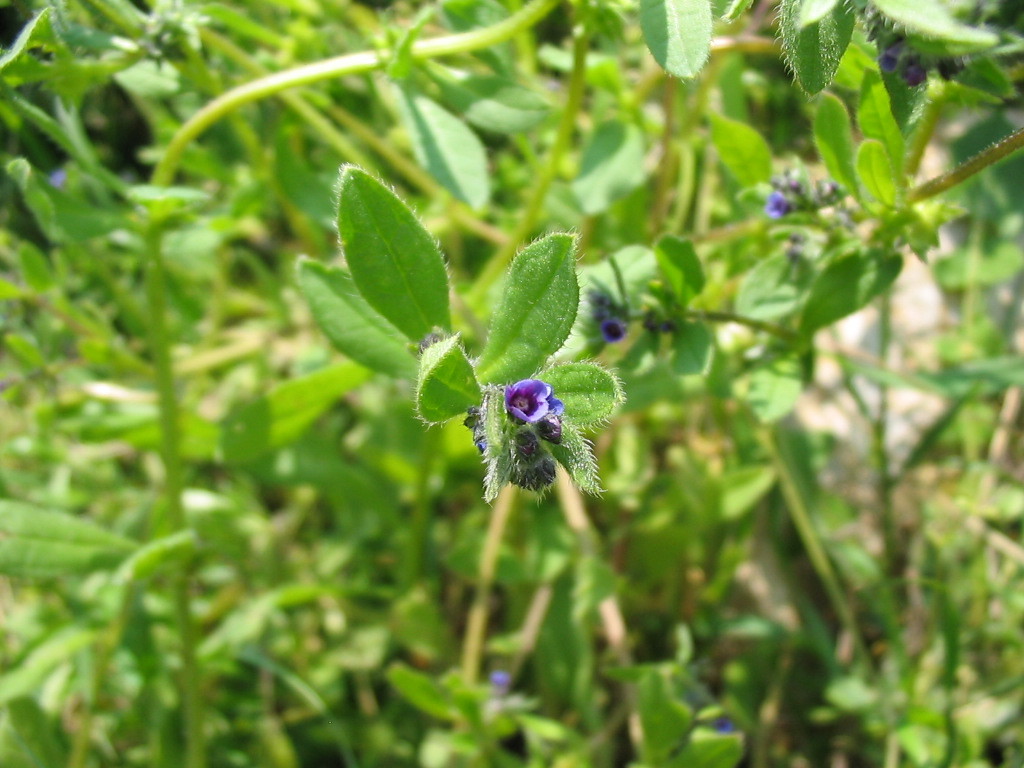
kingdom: Plantae
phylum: Tracheophyta
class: Magnoliopsida
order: Boraginales
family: Boraginaceae
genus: Asperugo
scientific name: Asperugo procumbens
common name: Madwort
